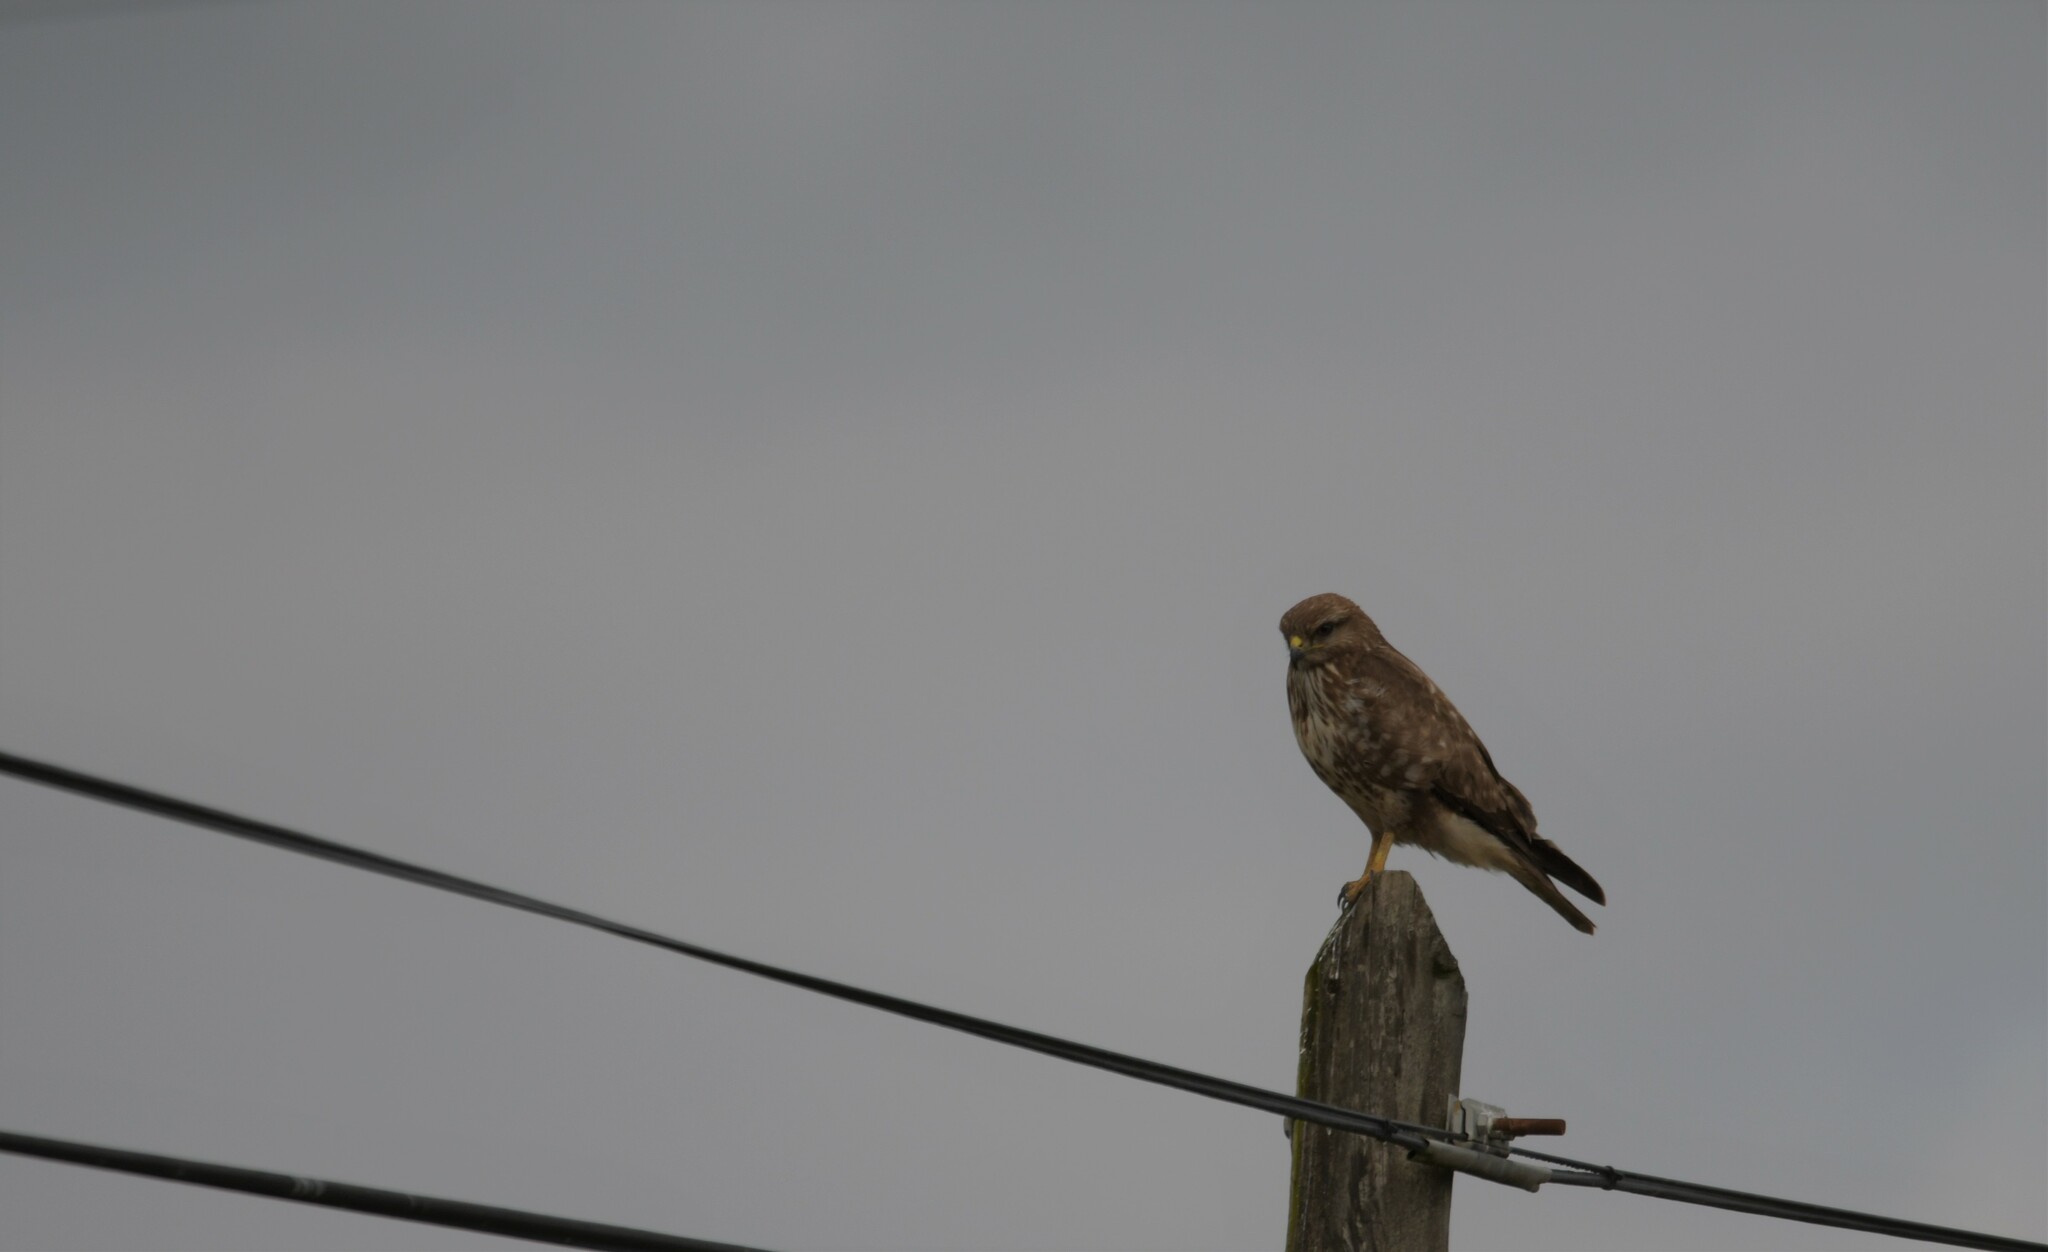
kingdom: Animalia
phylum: Chordata
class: Aves
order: Accipitriformes
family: Accipitridae
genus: Buteo
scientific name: Buteo buteo
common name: Common buzzard
